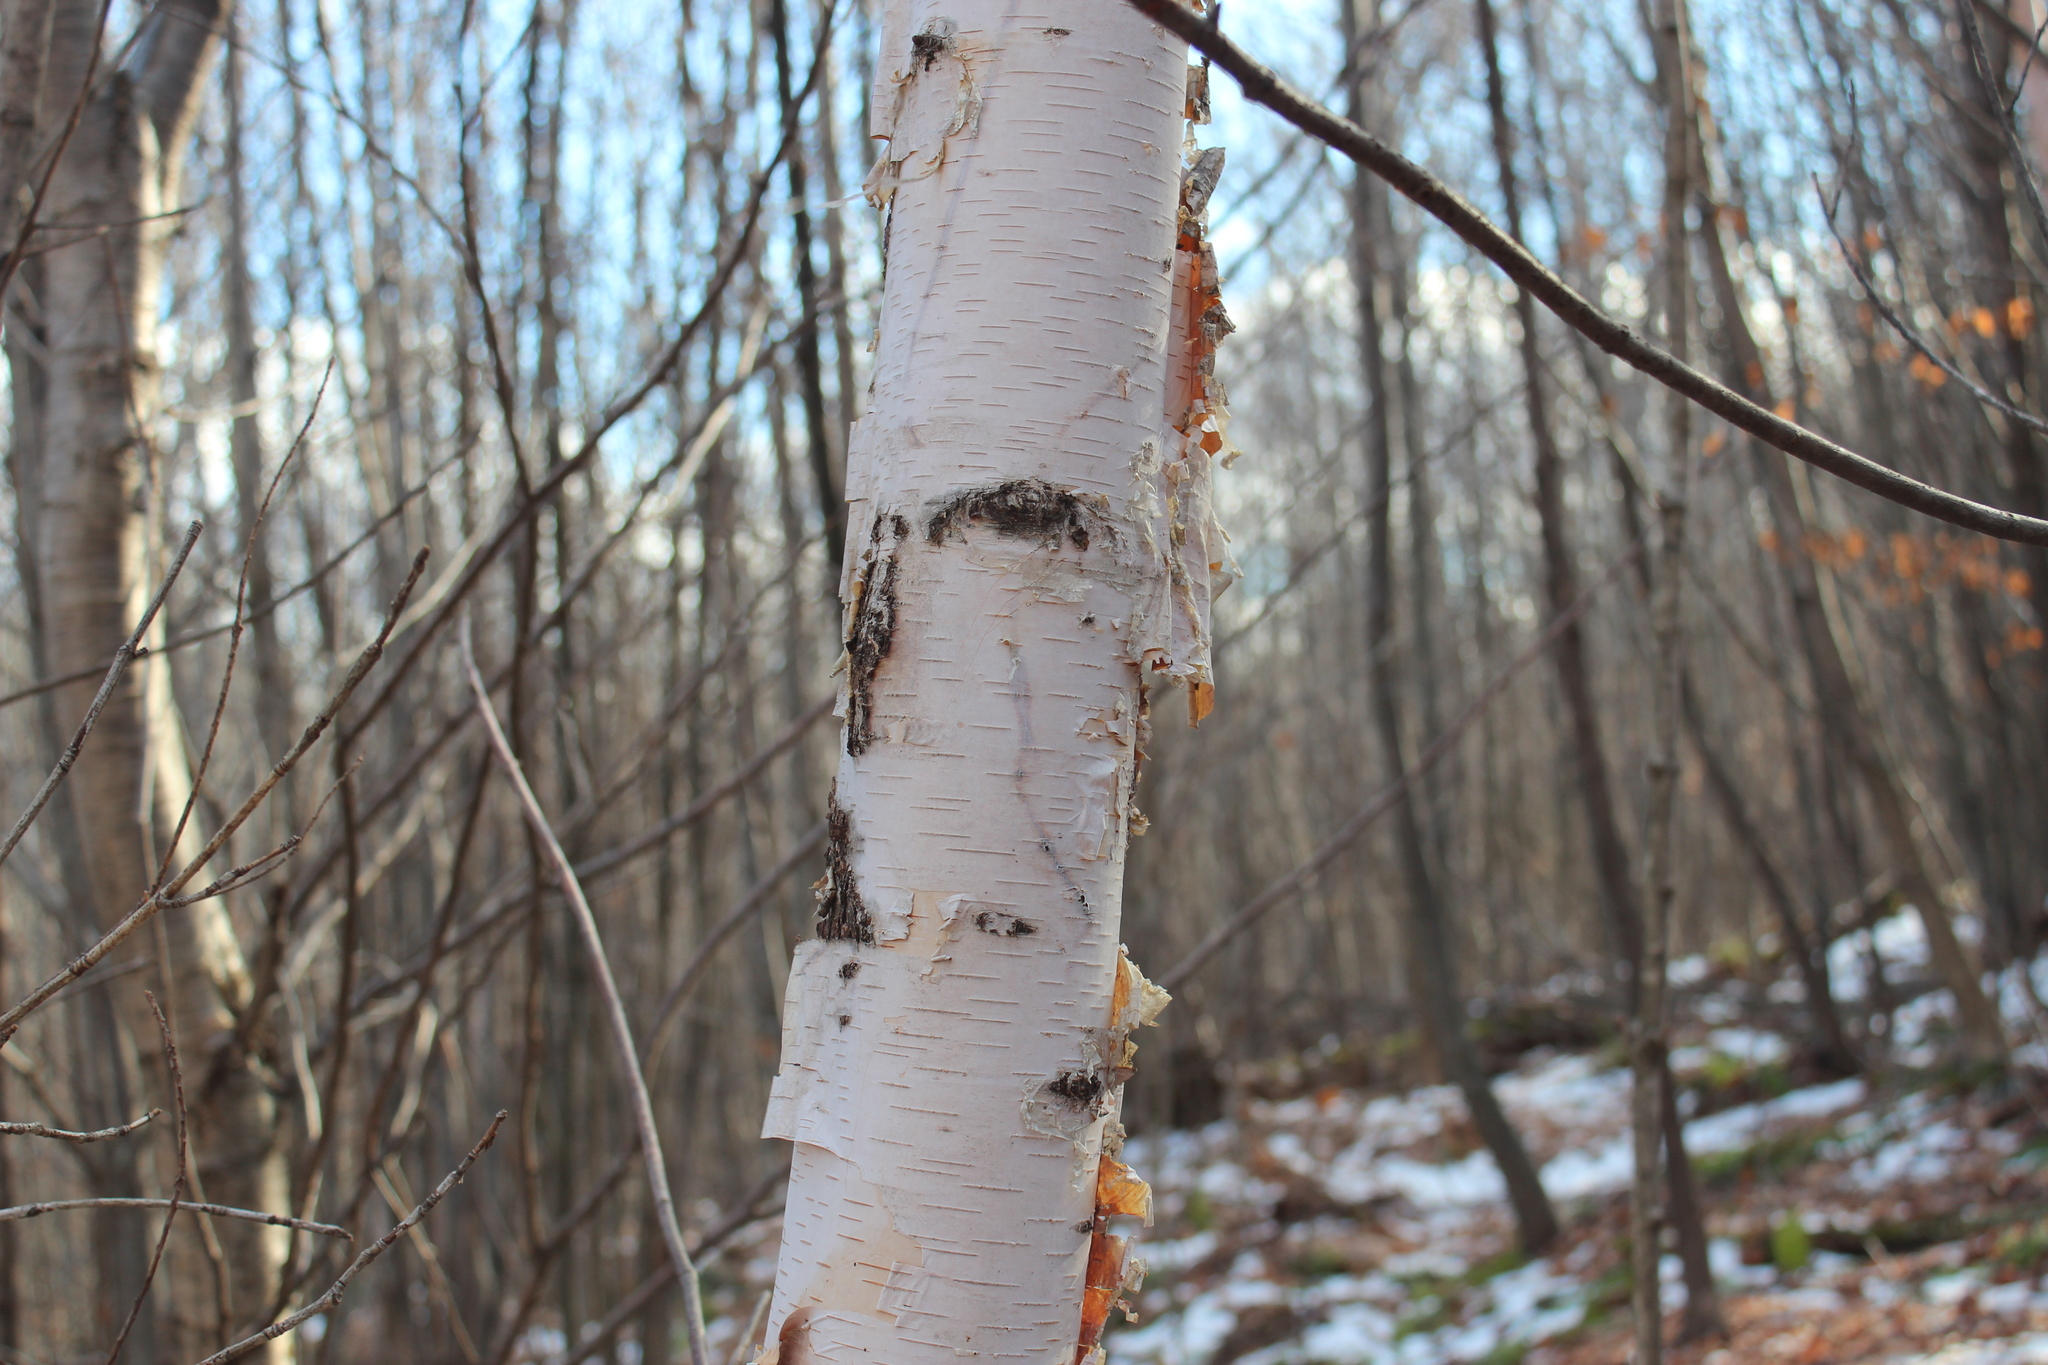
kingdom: Plantae
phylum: Tracheophyta
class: Magnoliopsida
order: Fagales
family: Betulaceae
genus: Betula
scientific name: Betula papyrifera
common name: Paper birch
